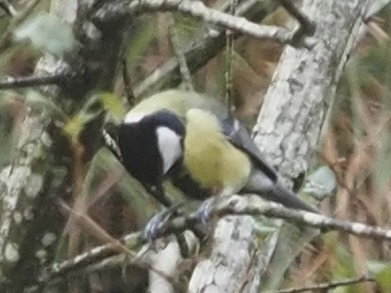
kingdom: Animalia
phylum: Chordata
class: Aves
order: Passeriformes
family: Paridae
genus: Parus
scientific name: Parus major
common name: Great tit
